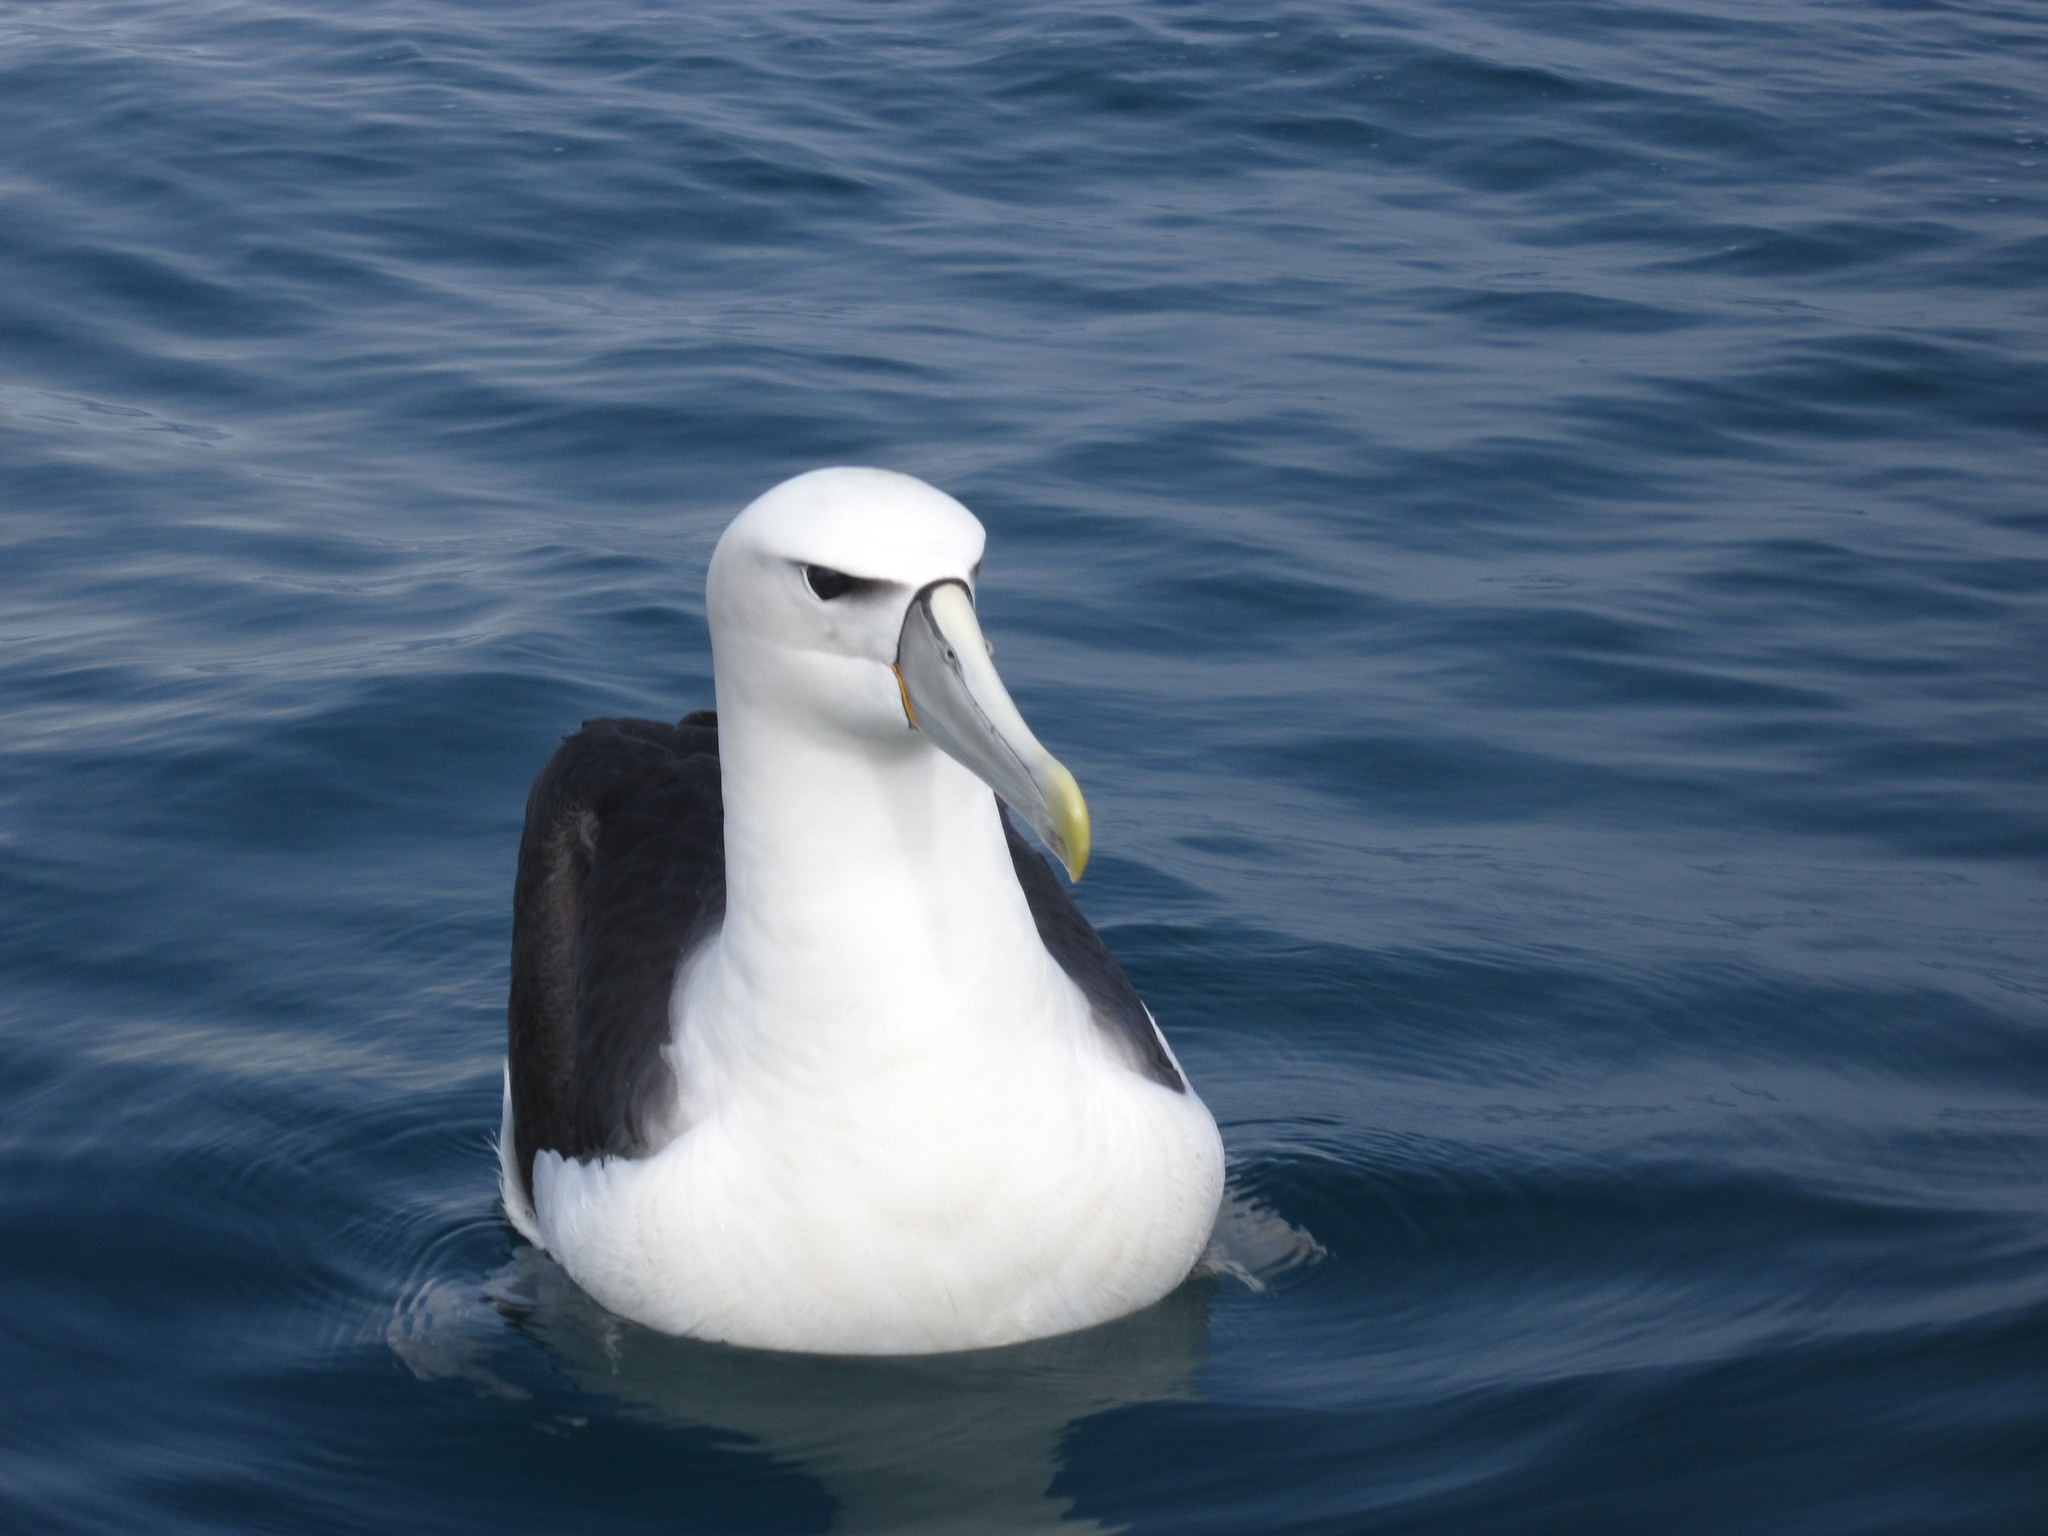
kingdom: Animalia
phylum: Chordata
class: Aves
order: Procellariiformes
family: Diomedeidae
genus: Thalassarche
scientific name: Thalassarche cauta
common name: Shy albatross
